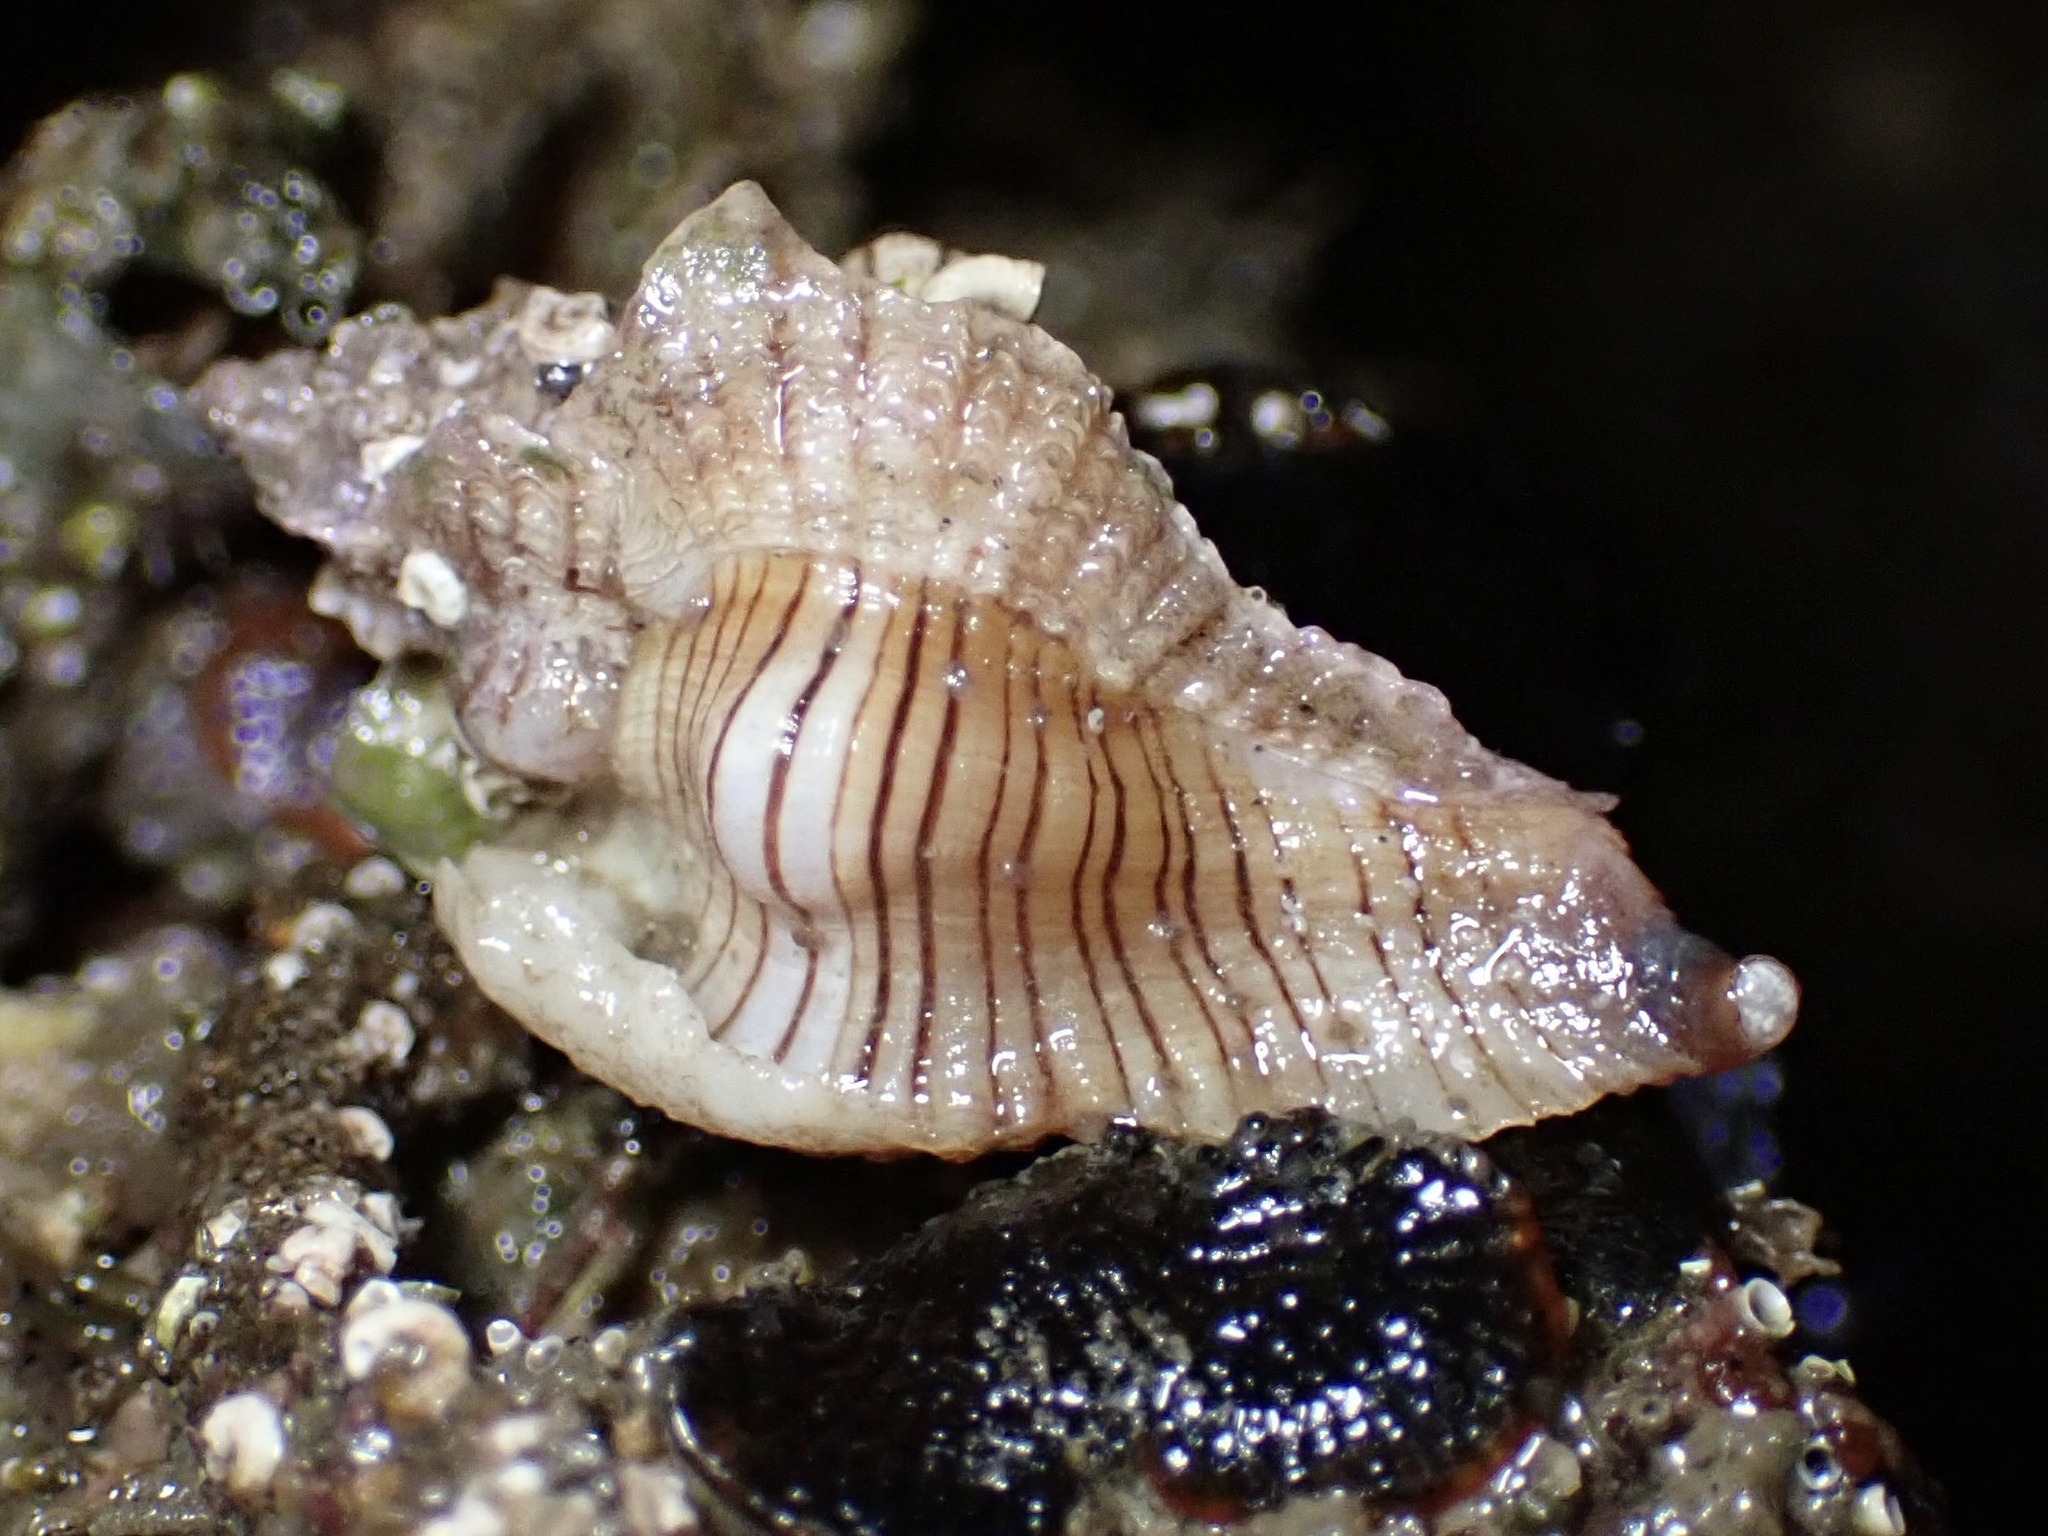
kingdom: Animalia
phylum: Mollusca
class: Gastropoda
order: Neogastropoda
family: Muricidae
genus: Pteropurpura
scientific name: Pteropurpura festiva
